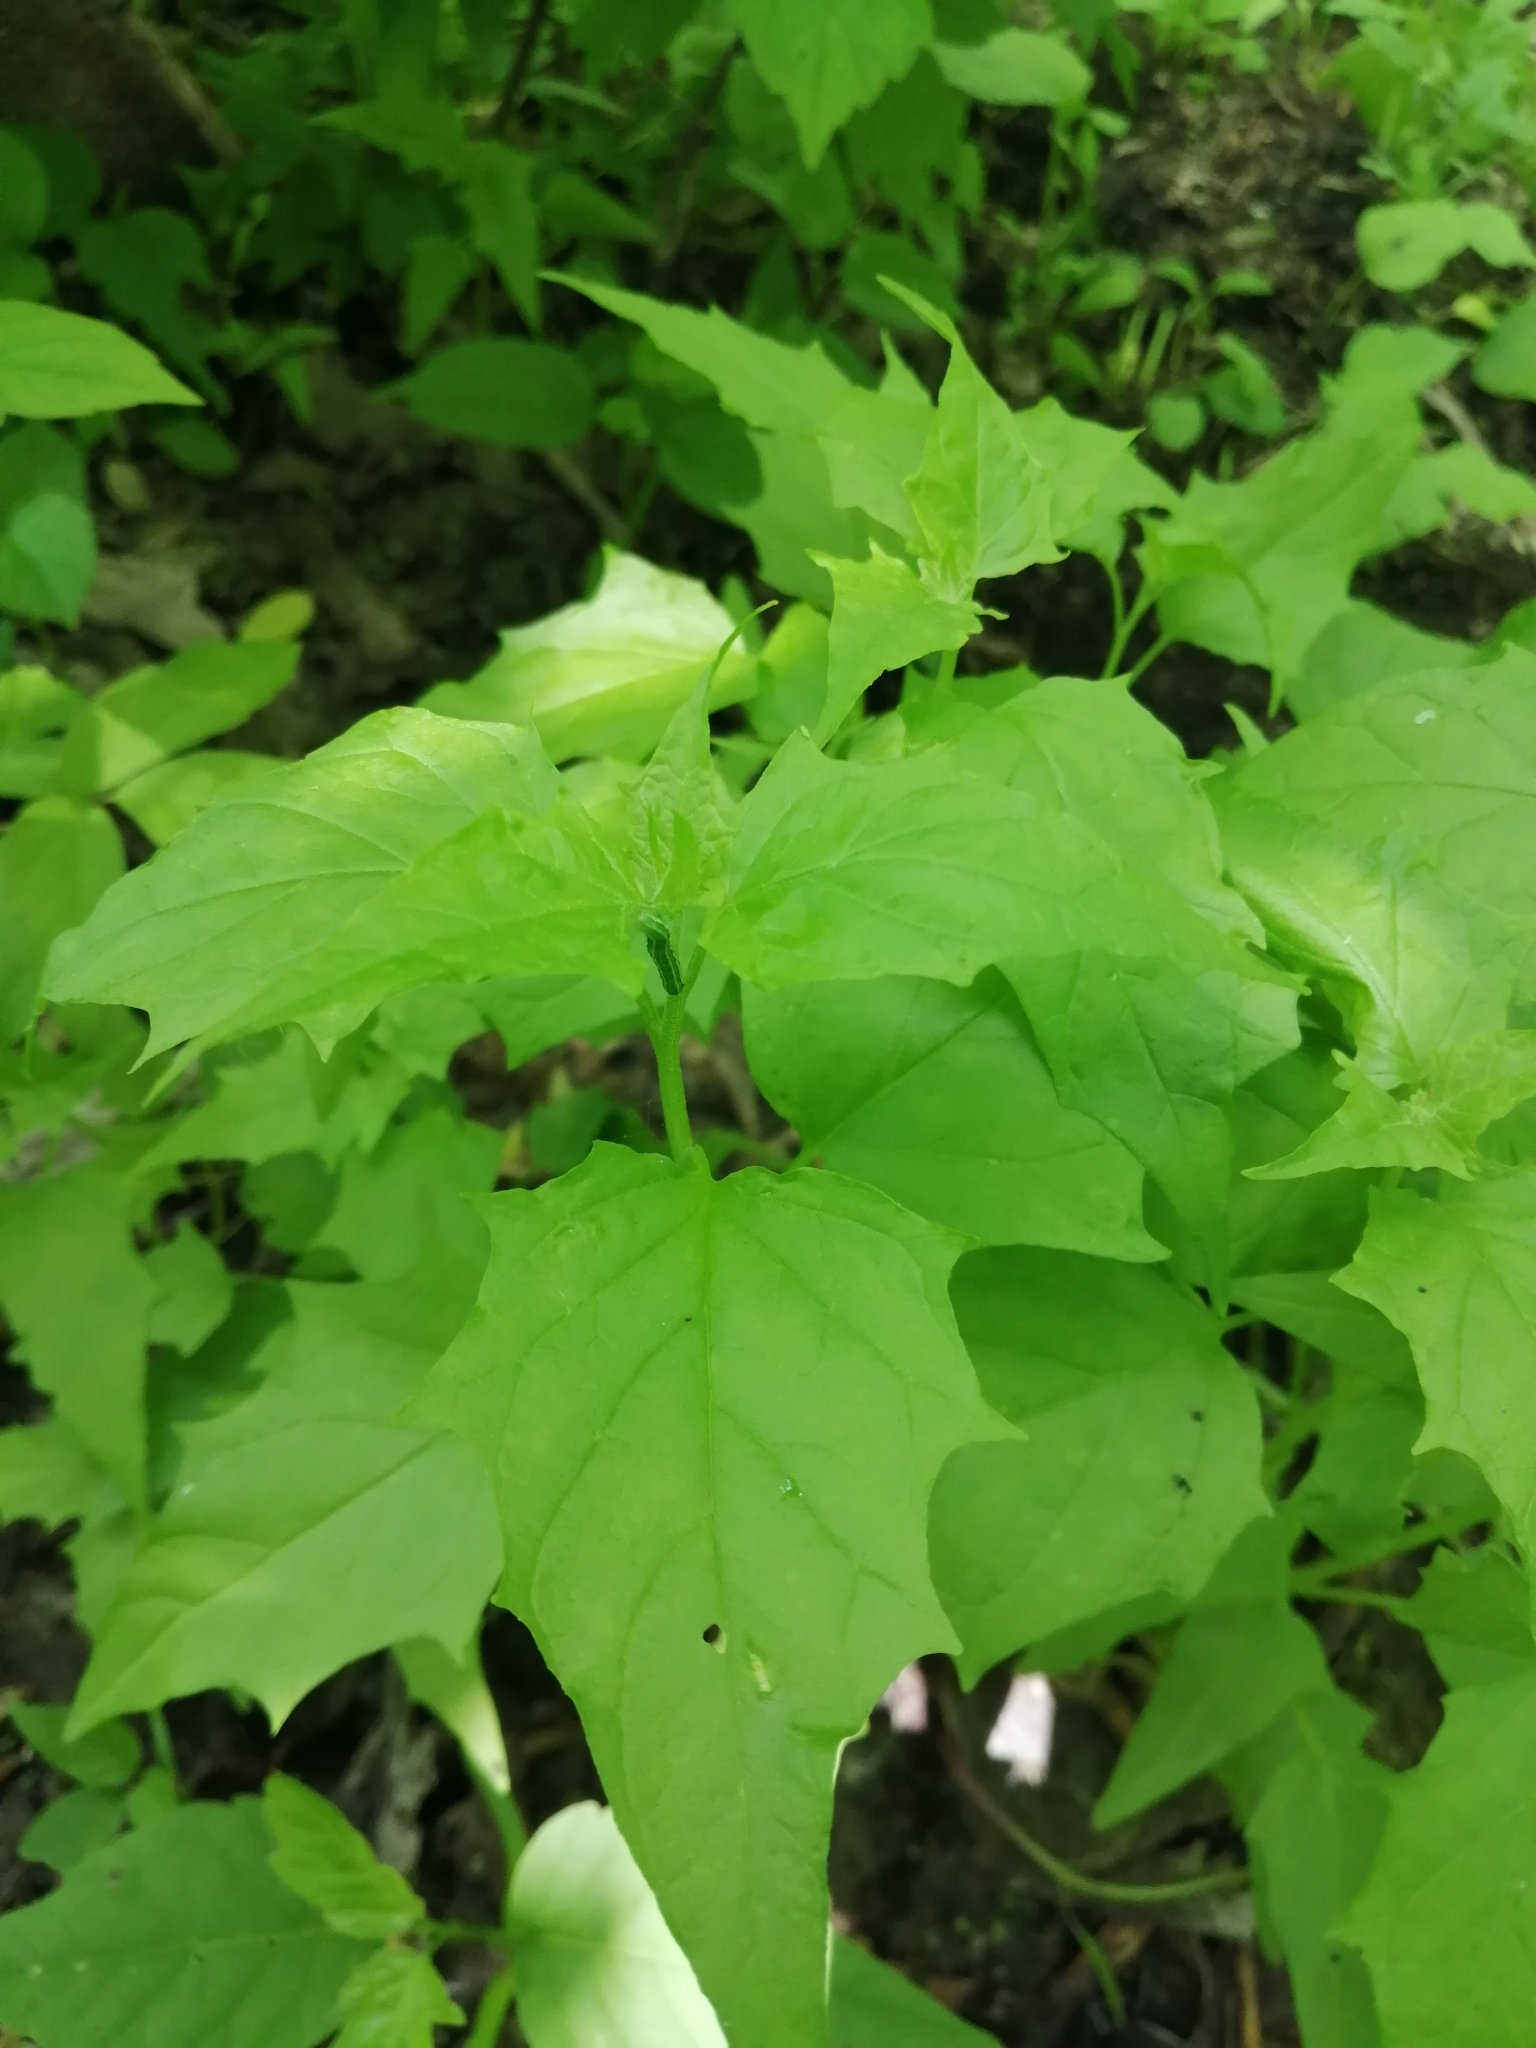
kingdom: Plantae
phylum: Tracheophyta
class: Magnoliopsida
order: Caryophyllales
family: Amaranthaceae
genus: Chenopodiastrum
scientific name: Chenopodiastrum hybridum
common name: Mapleleaf goosefoot
